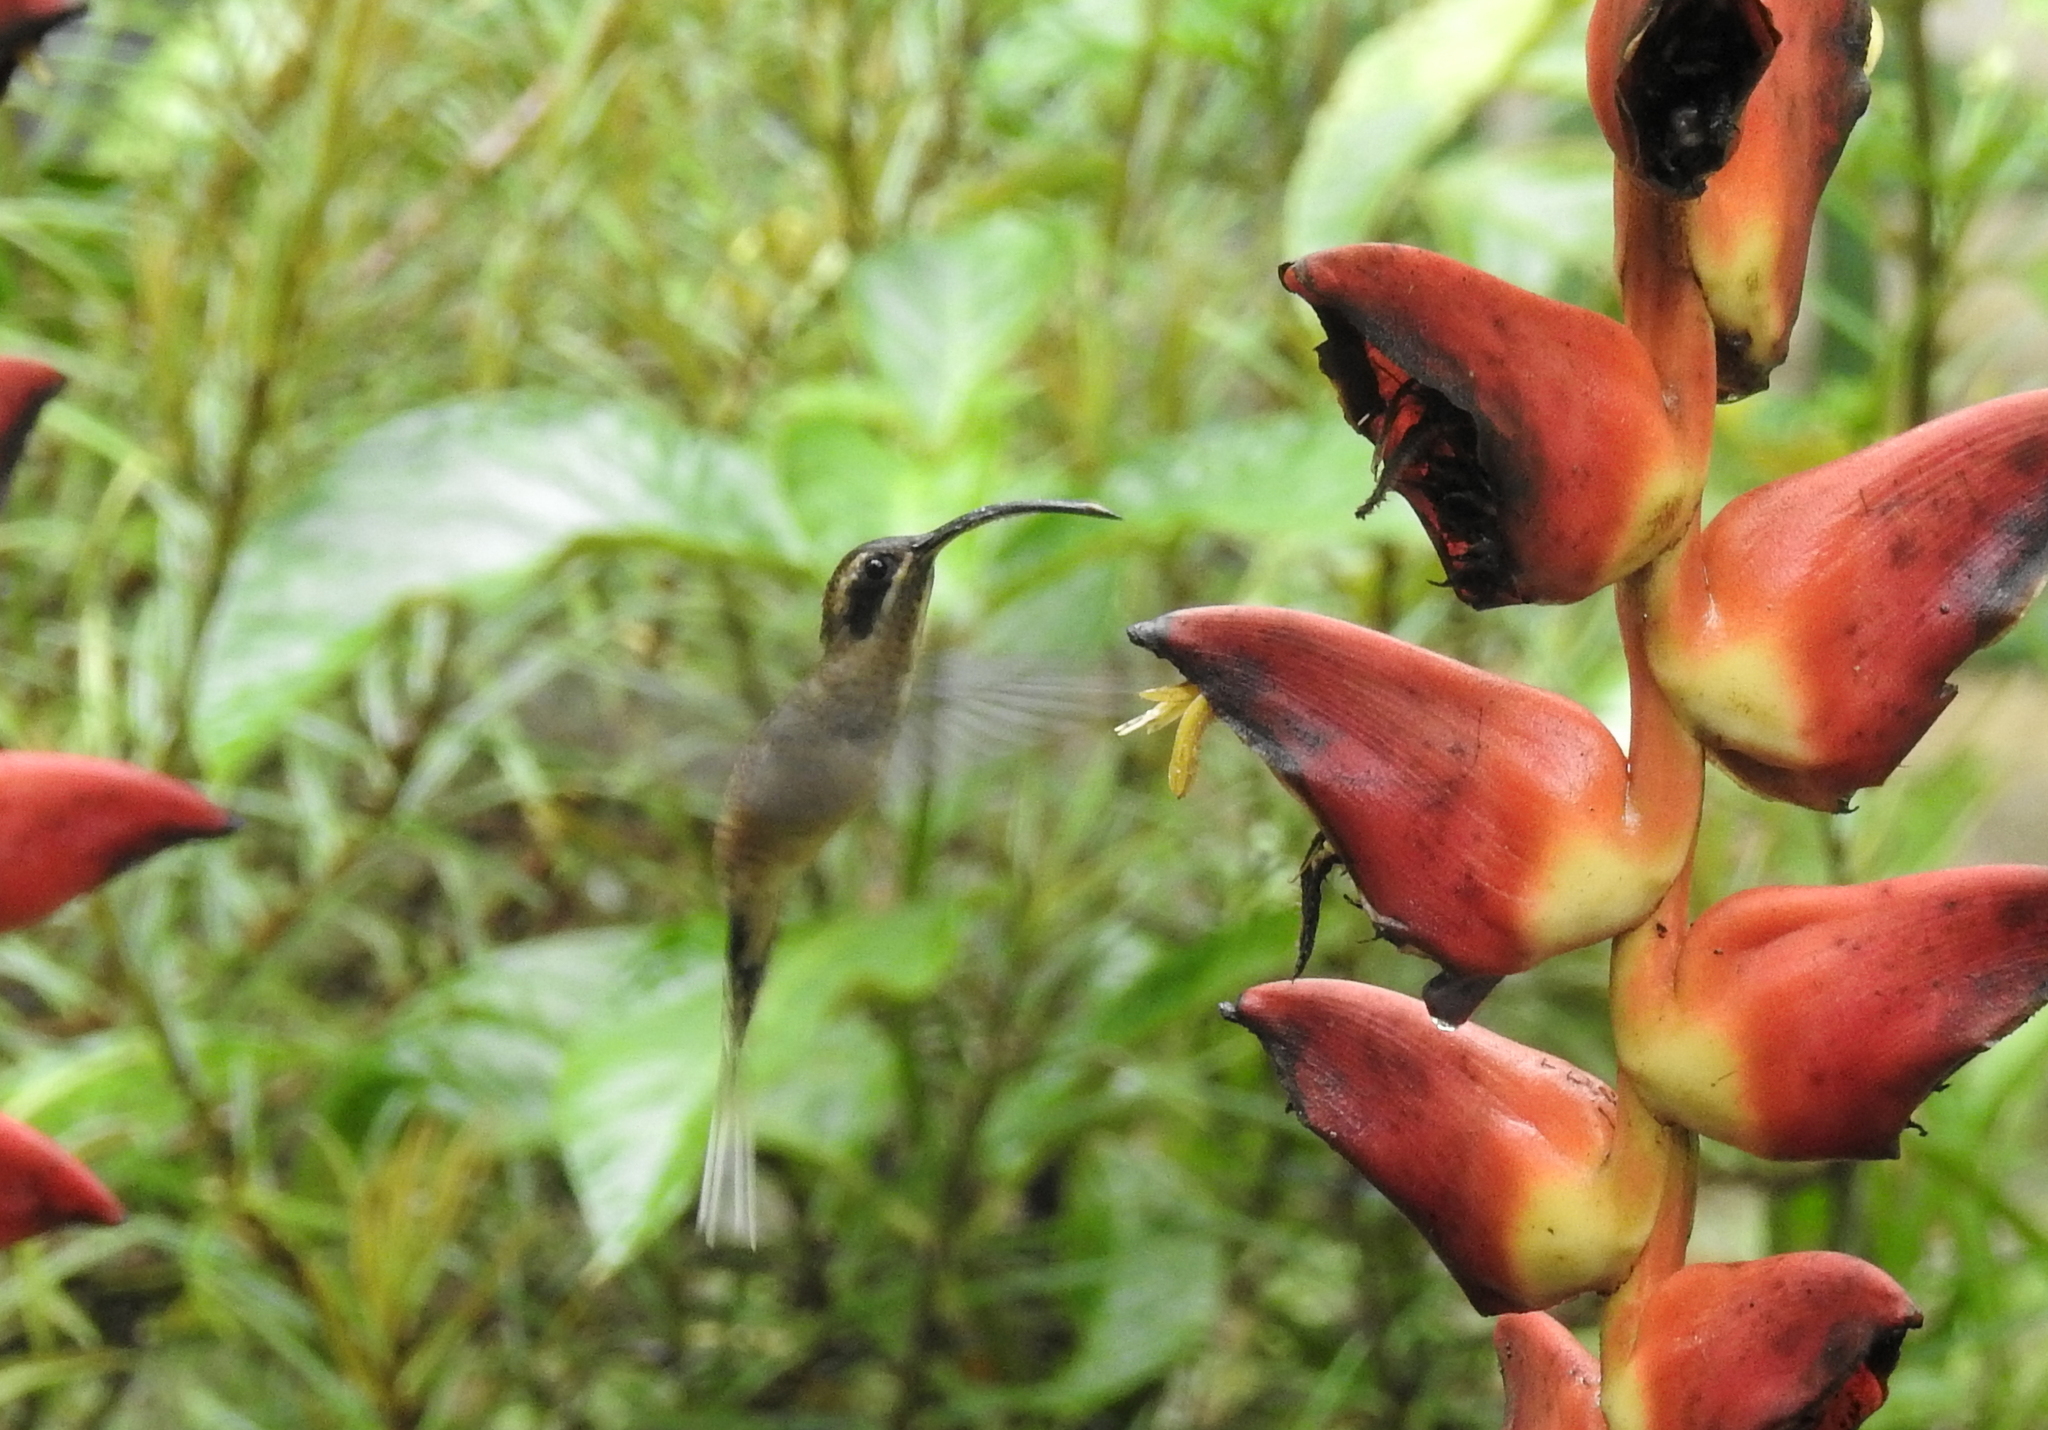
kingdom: Animalia
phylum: Chordata
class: Aves
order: Apodiformes
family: Trochilidae
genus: Phaethornis
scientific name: Phaethornis longirostris
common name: Long-billed hermit
